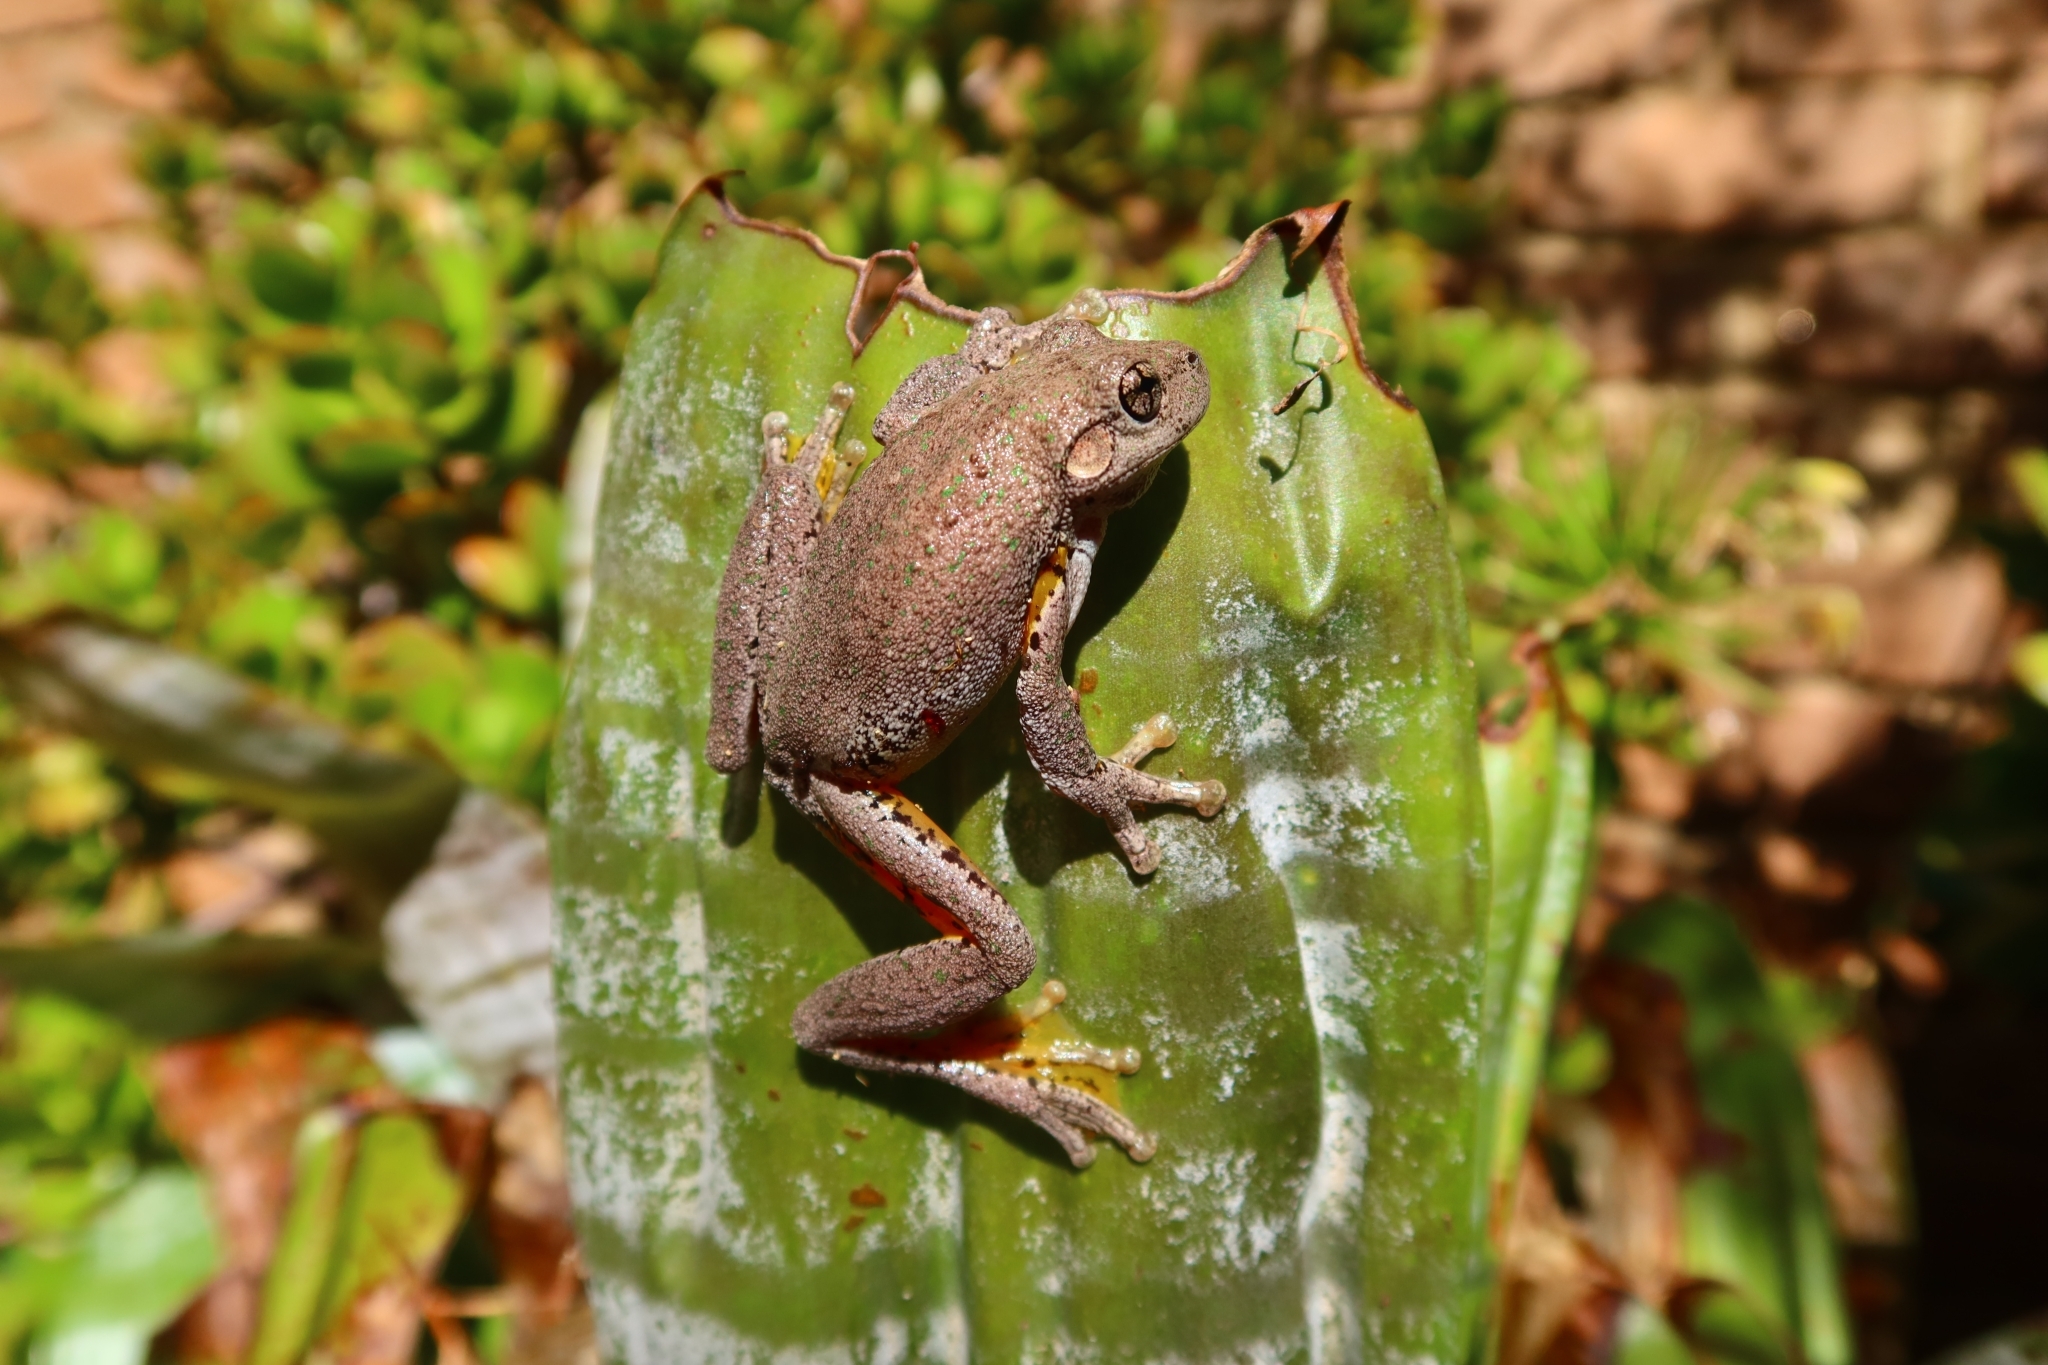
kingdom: Animalia
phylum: Chordata
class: Amphibia
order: Anura
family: Pelodryadidae
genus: Litoria
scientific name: Litoria peronii
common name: Emerald spotted treefrog
